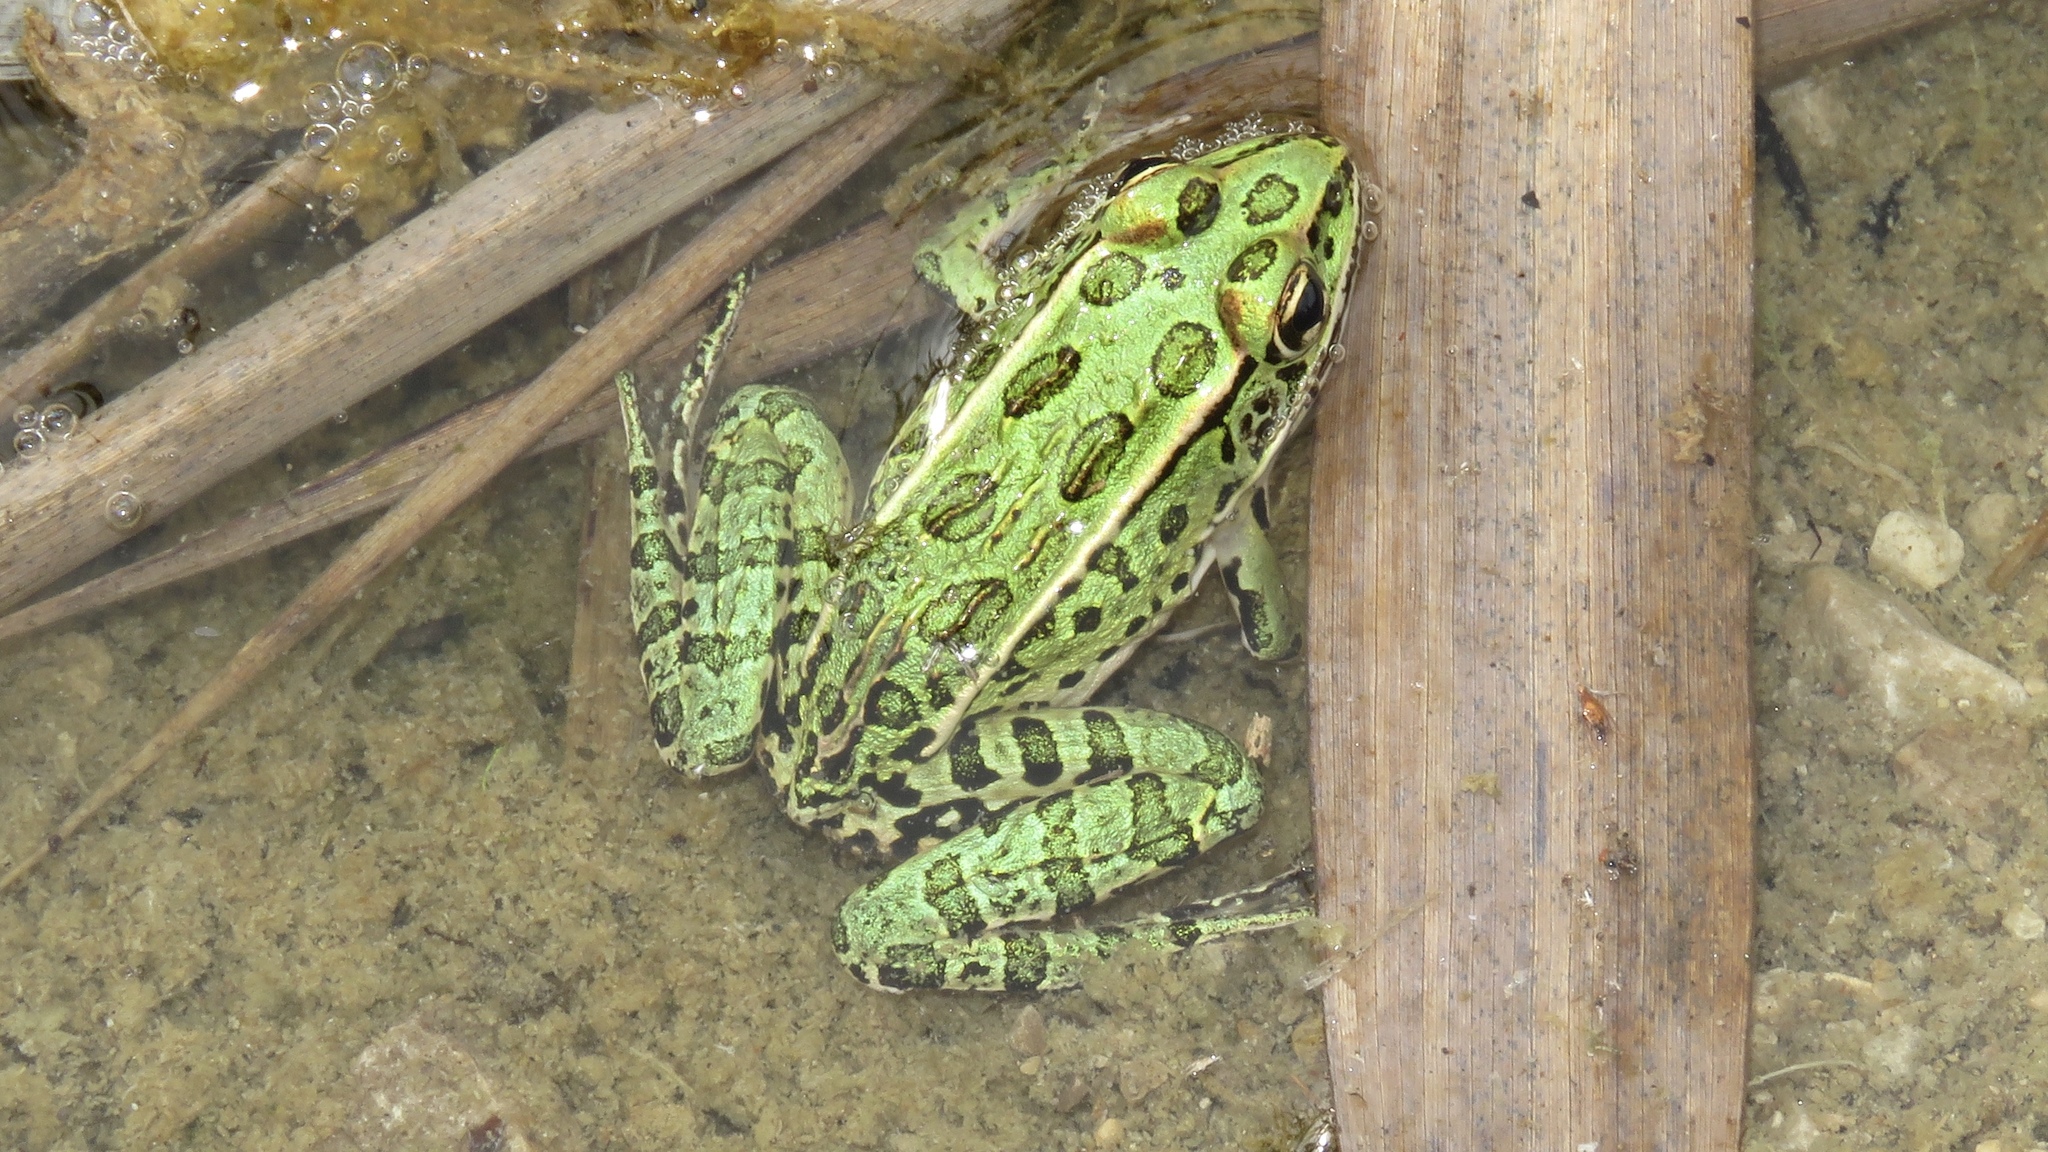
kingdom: Animalia
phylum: Chordata
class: Amphibia
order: Anura
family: Ranidae
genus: Lithobates
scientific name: Lithobates pipiens
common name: Northern leopard frog
